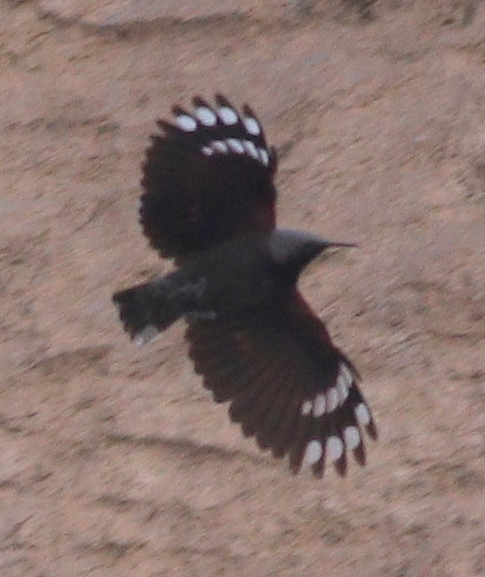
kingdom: Animalia
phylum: Chordata
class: Aves
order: Passeriformes
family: Tichodromidae
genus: Tichodroma
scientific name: Tichodroma muraria
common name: Wallcreeper
